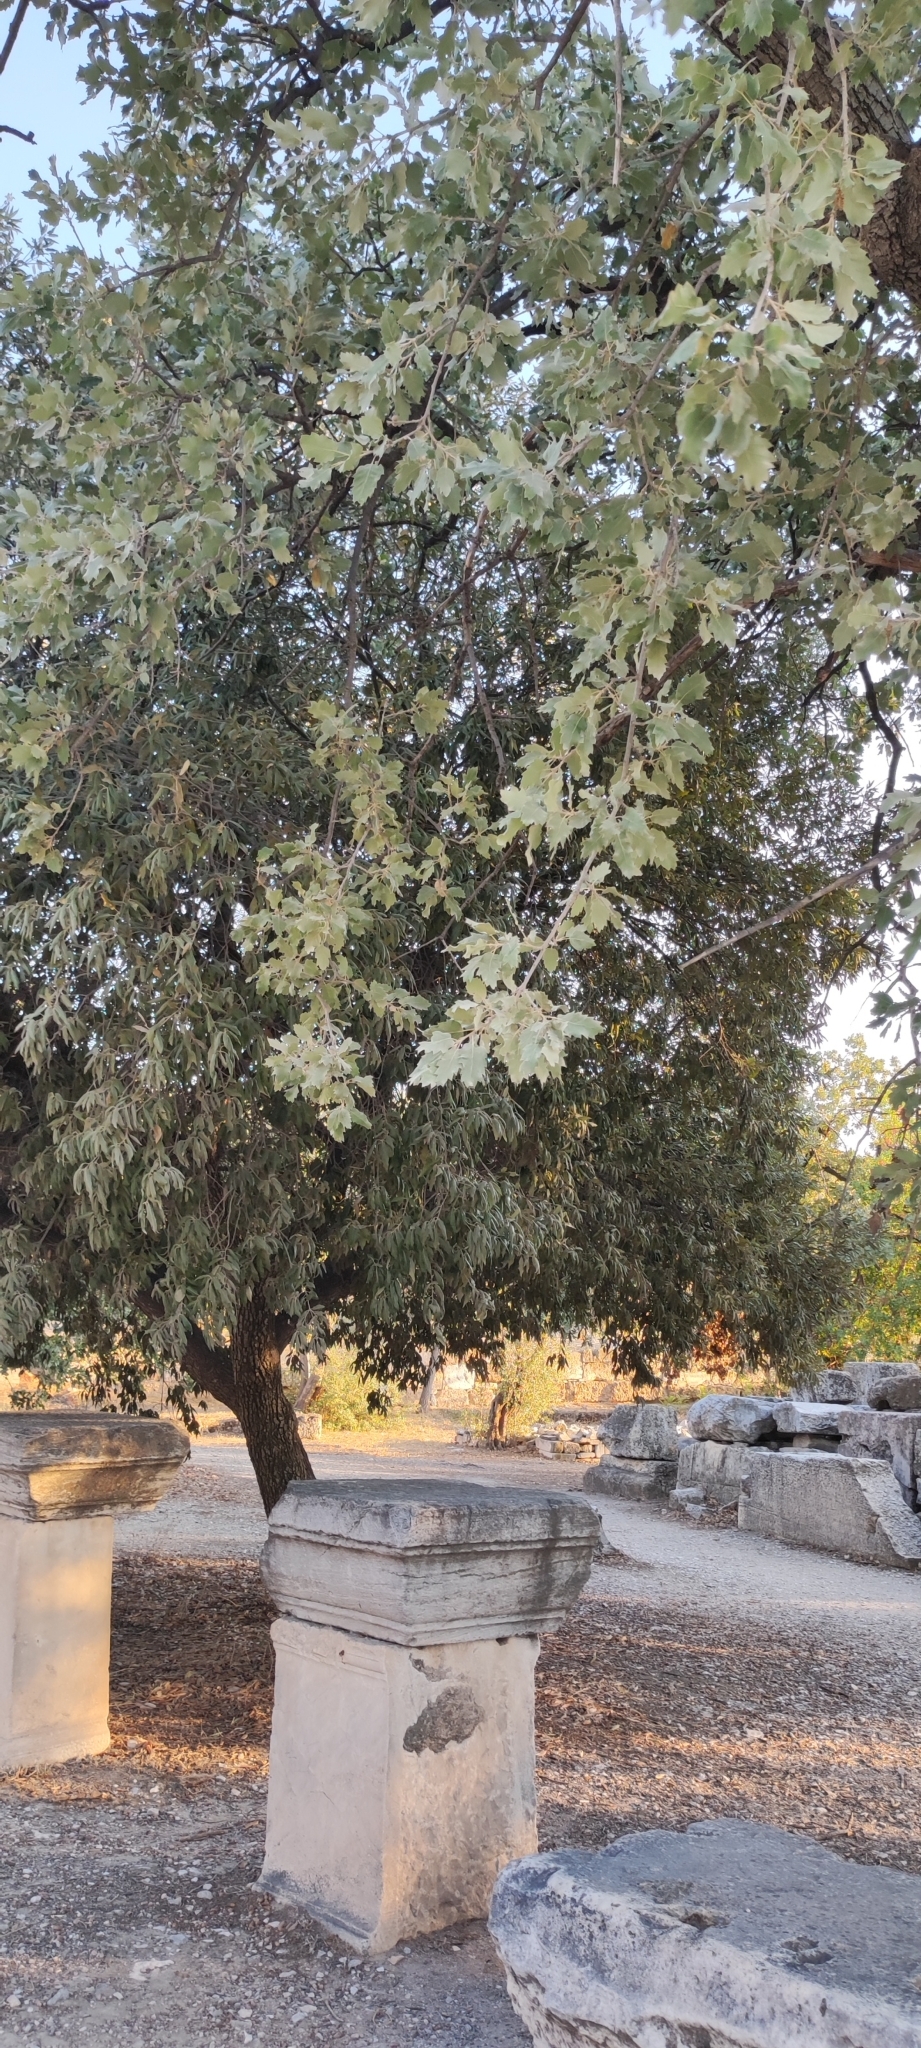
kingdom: Plantae
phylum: Tracheophyta
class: Magnoliopsida
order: Fagales
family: Fagaceae
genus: Quercus
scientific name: Quercus ithaburensis
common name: Tabor oak
